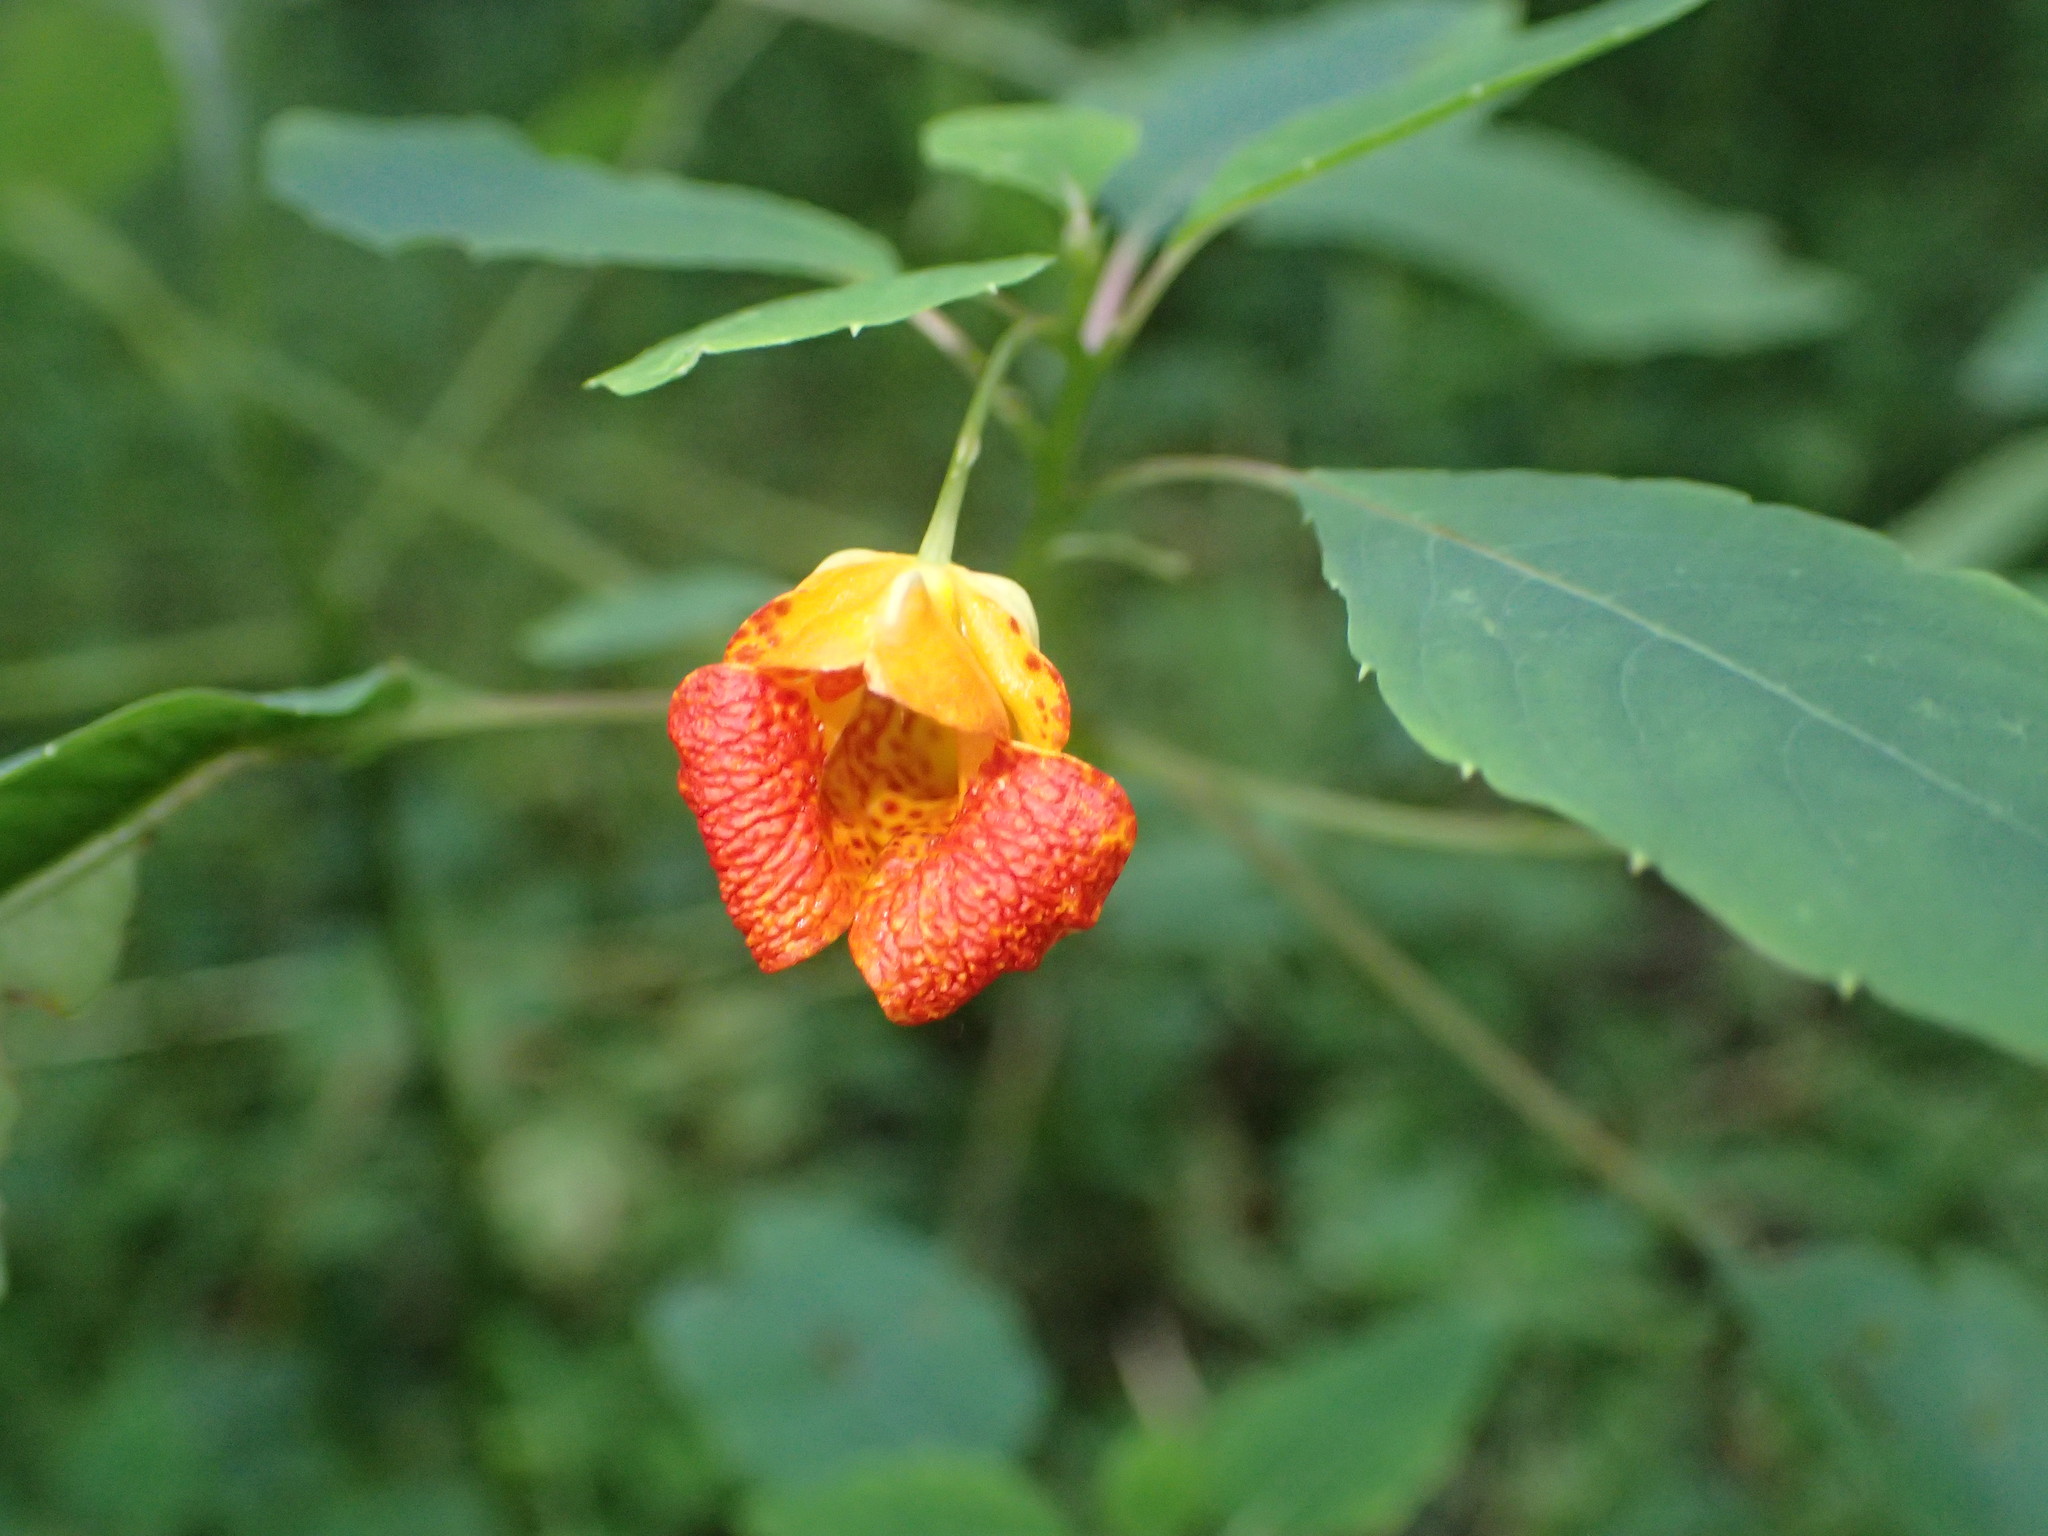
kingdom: Plantae
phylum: Tracheophyta
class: Magnoliopsida
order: Ericales
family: Balsaminaceae
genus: Impatiens
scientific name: Impatiens capensis
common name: Orange balsam
